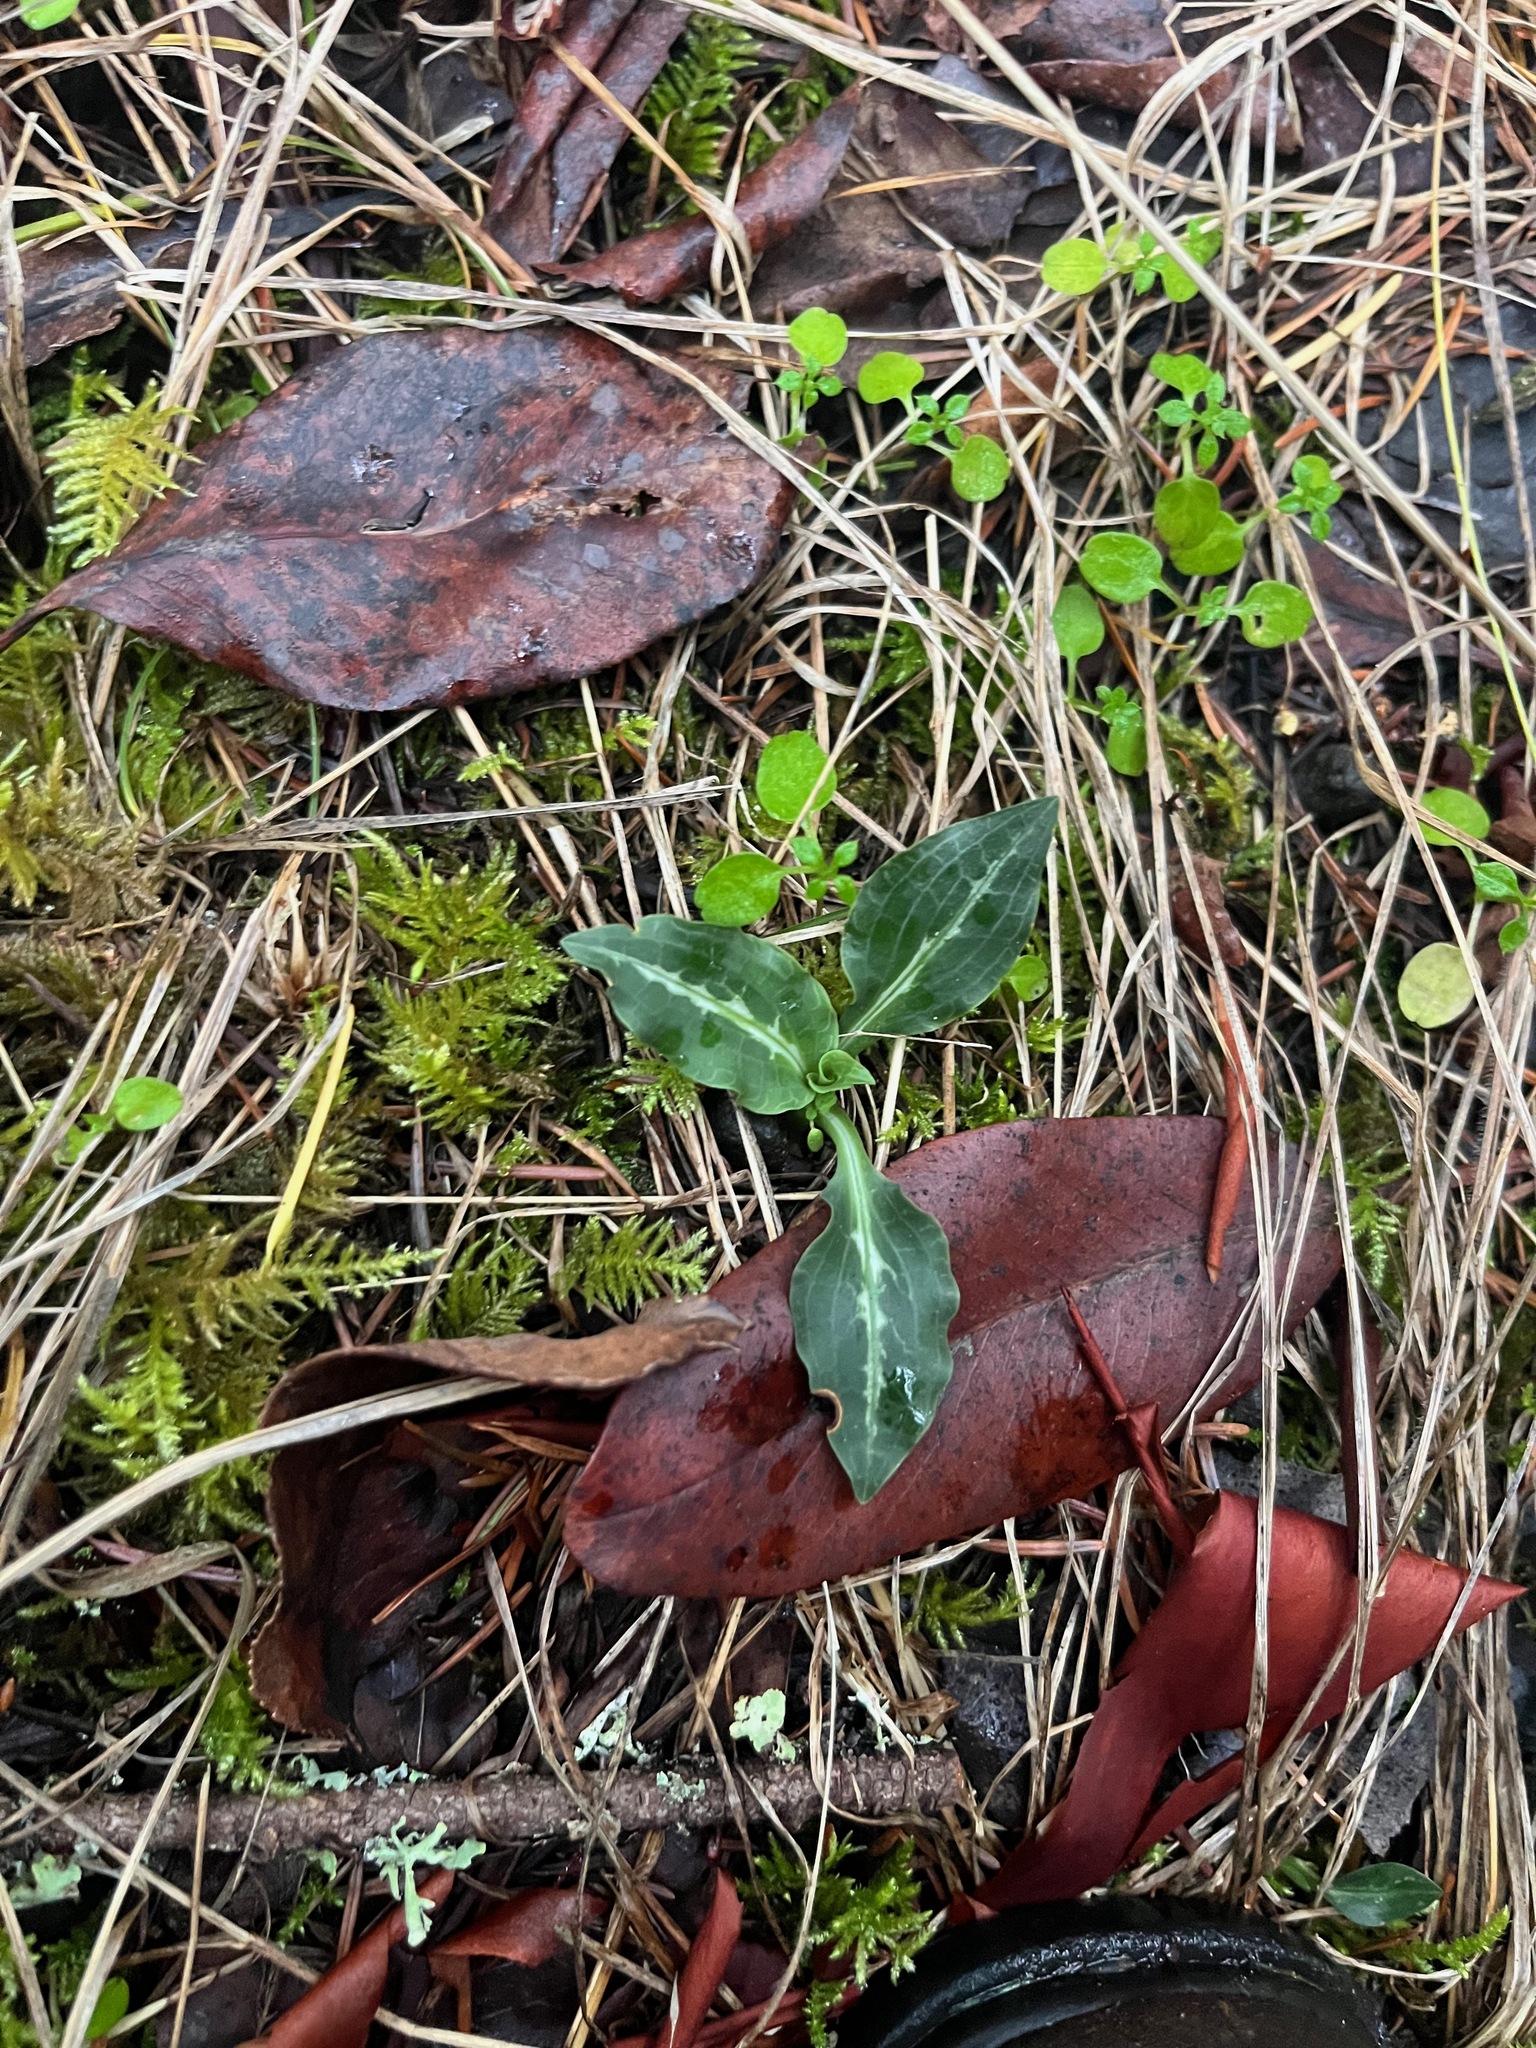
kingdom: Plantae
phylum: Tracheophyta
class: Liliopsida
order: Asparagales
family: Orchidaceae
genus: Goodyera
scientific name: Goodyera oblongifolia
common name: Giant rattlesnake-plantain
